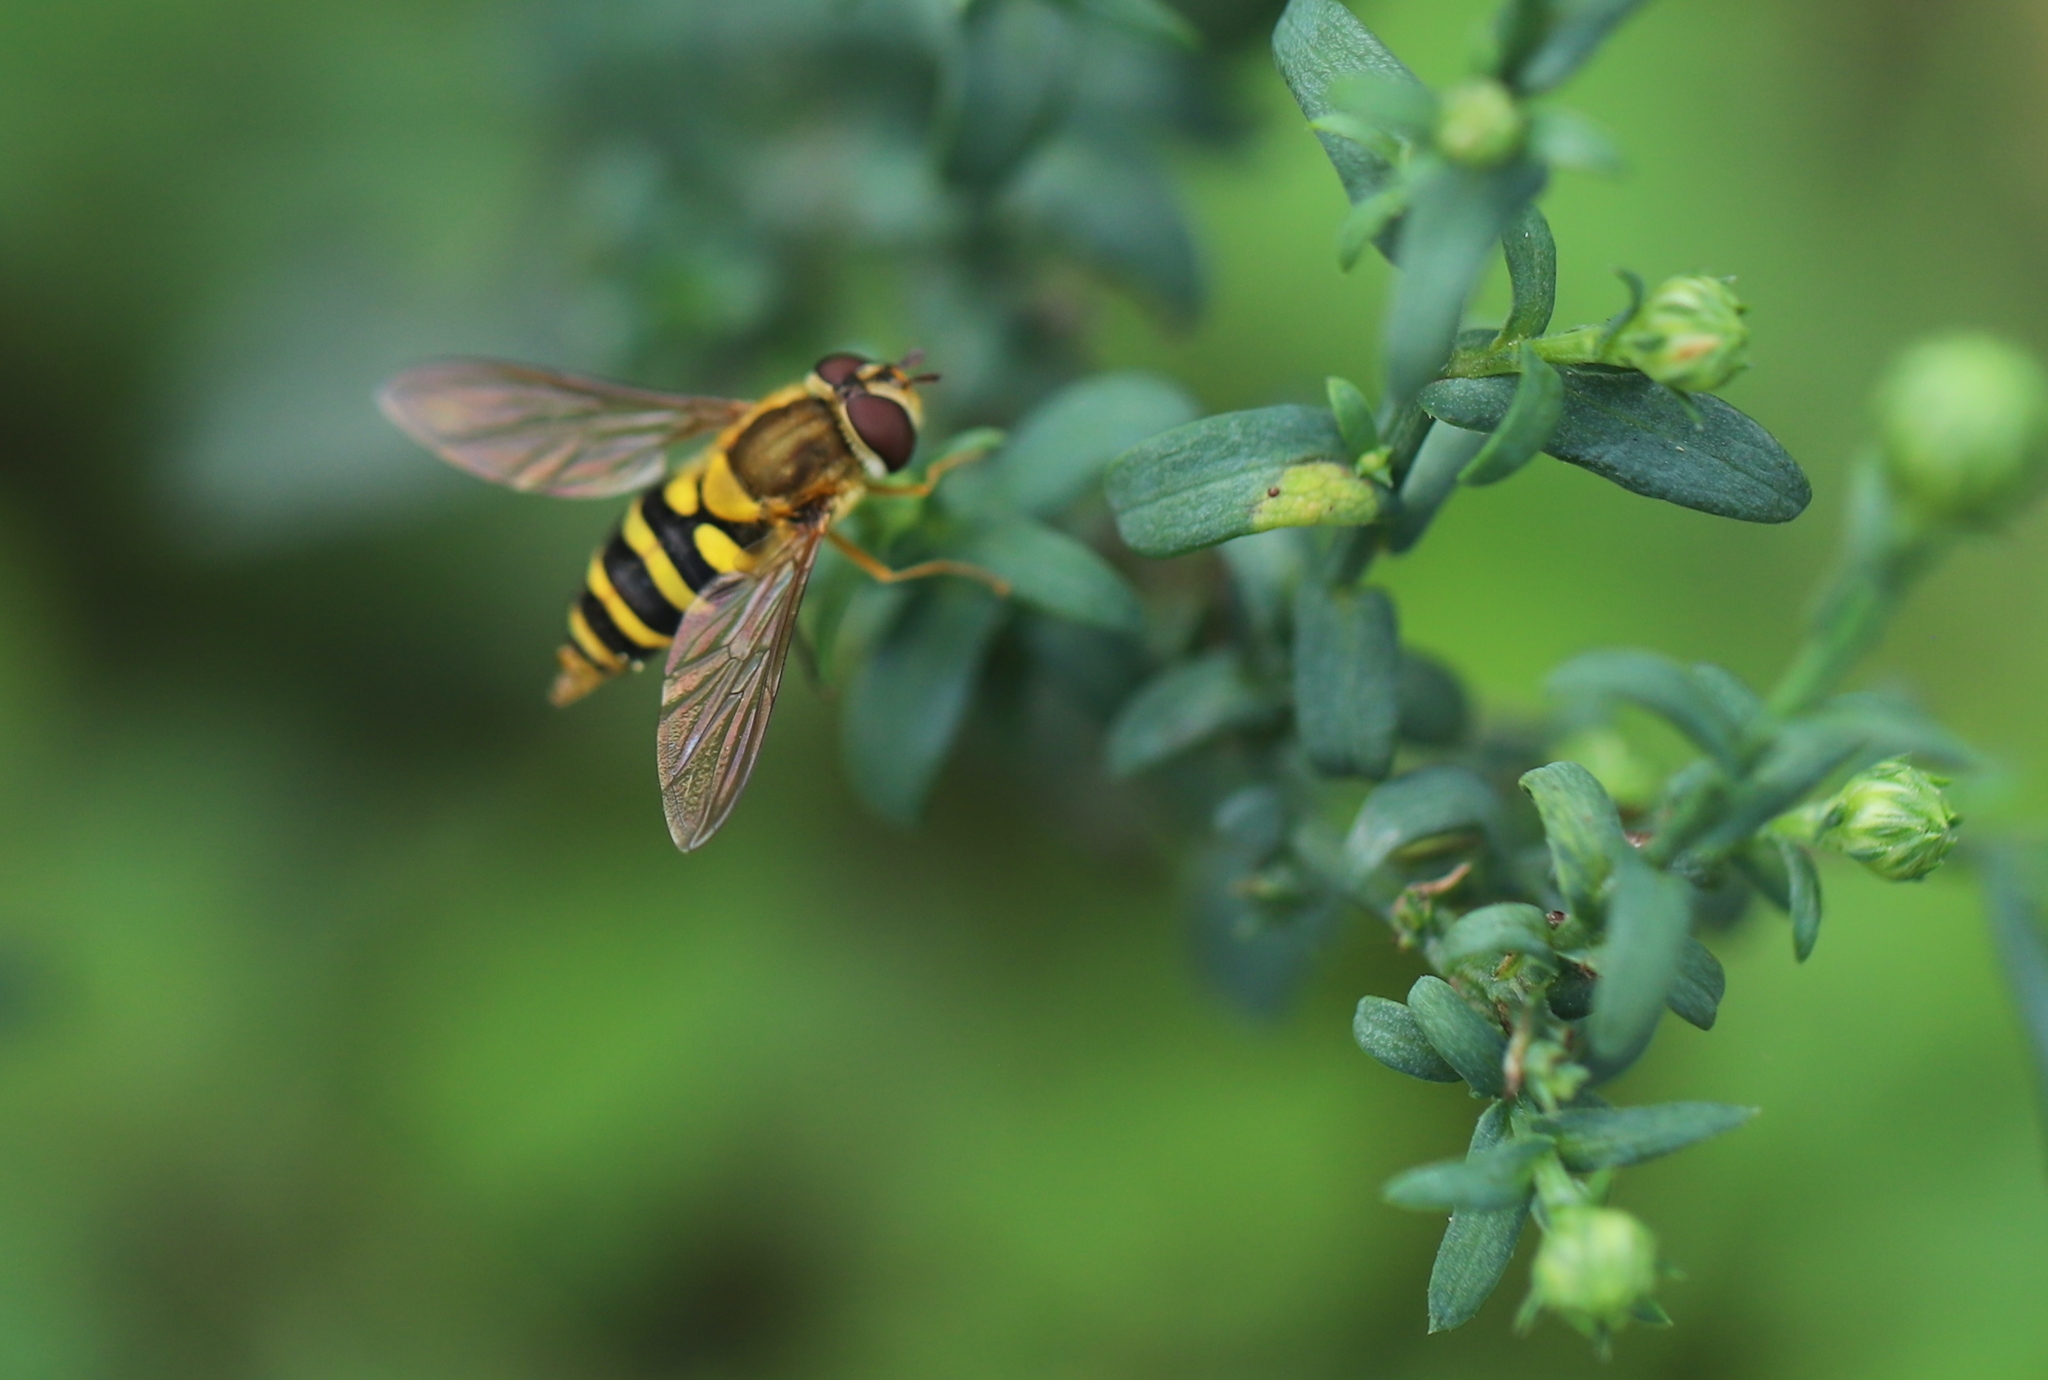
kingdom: Animalia
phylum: Arthropoda
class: Insecta
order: Diptera
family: Syrphidae
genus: Syrphus
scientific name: Syrphus
